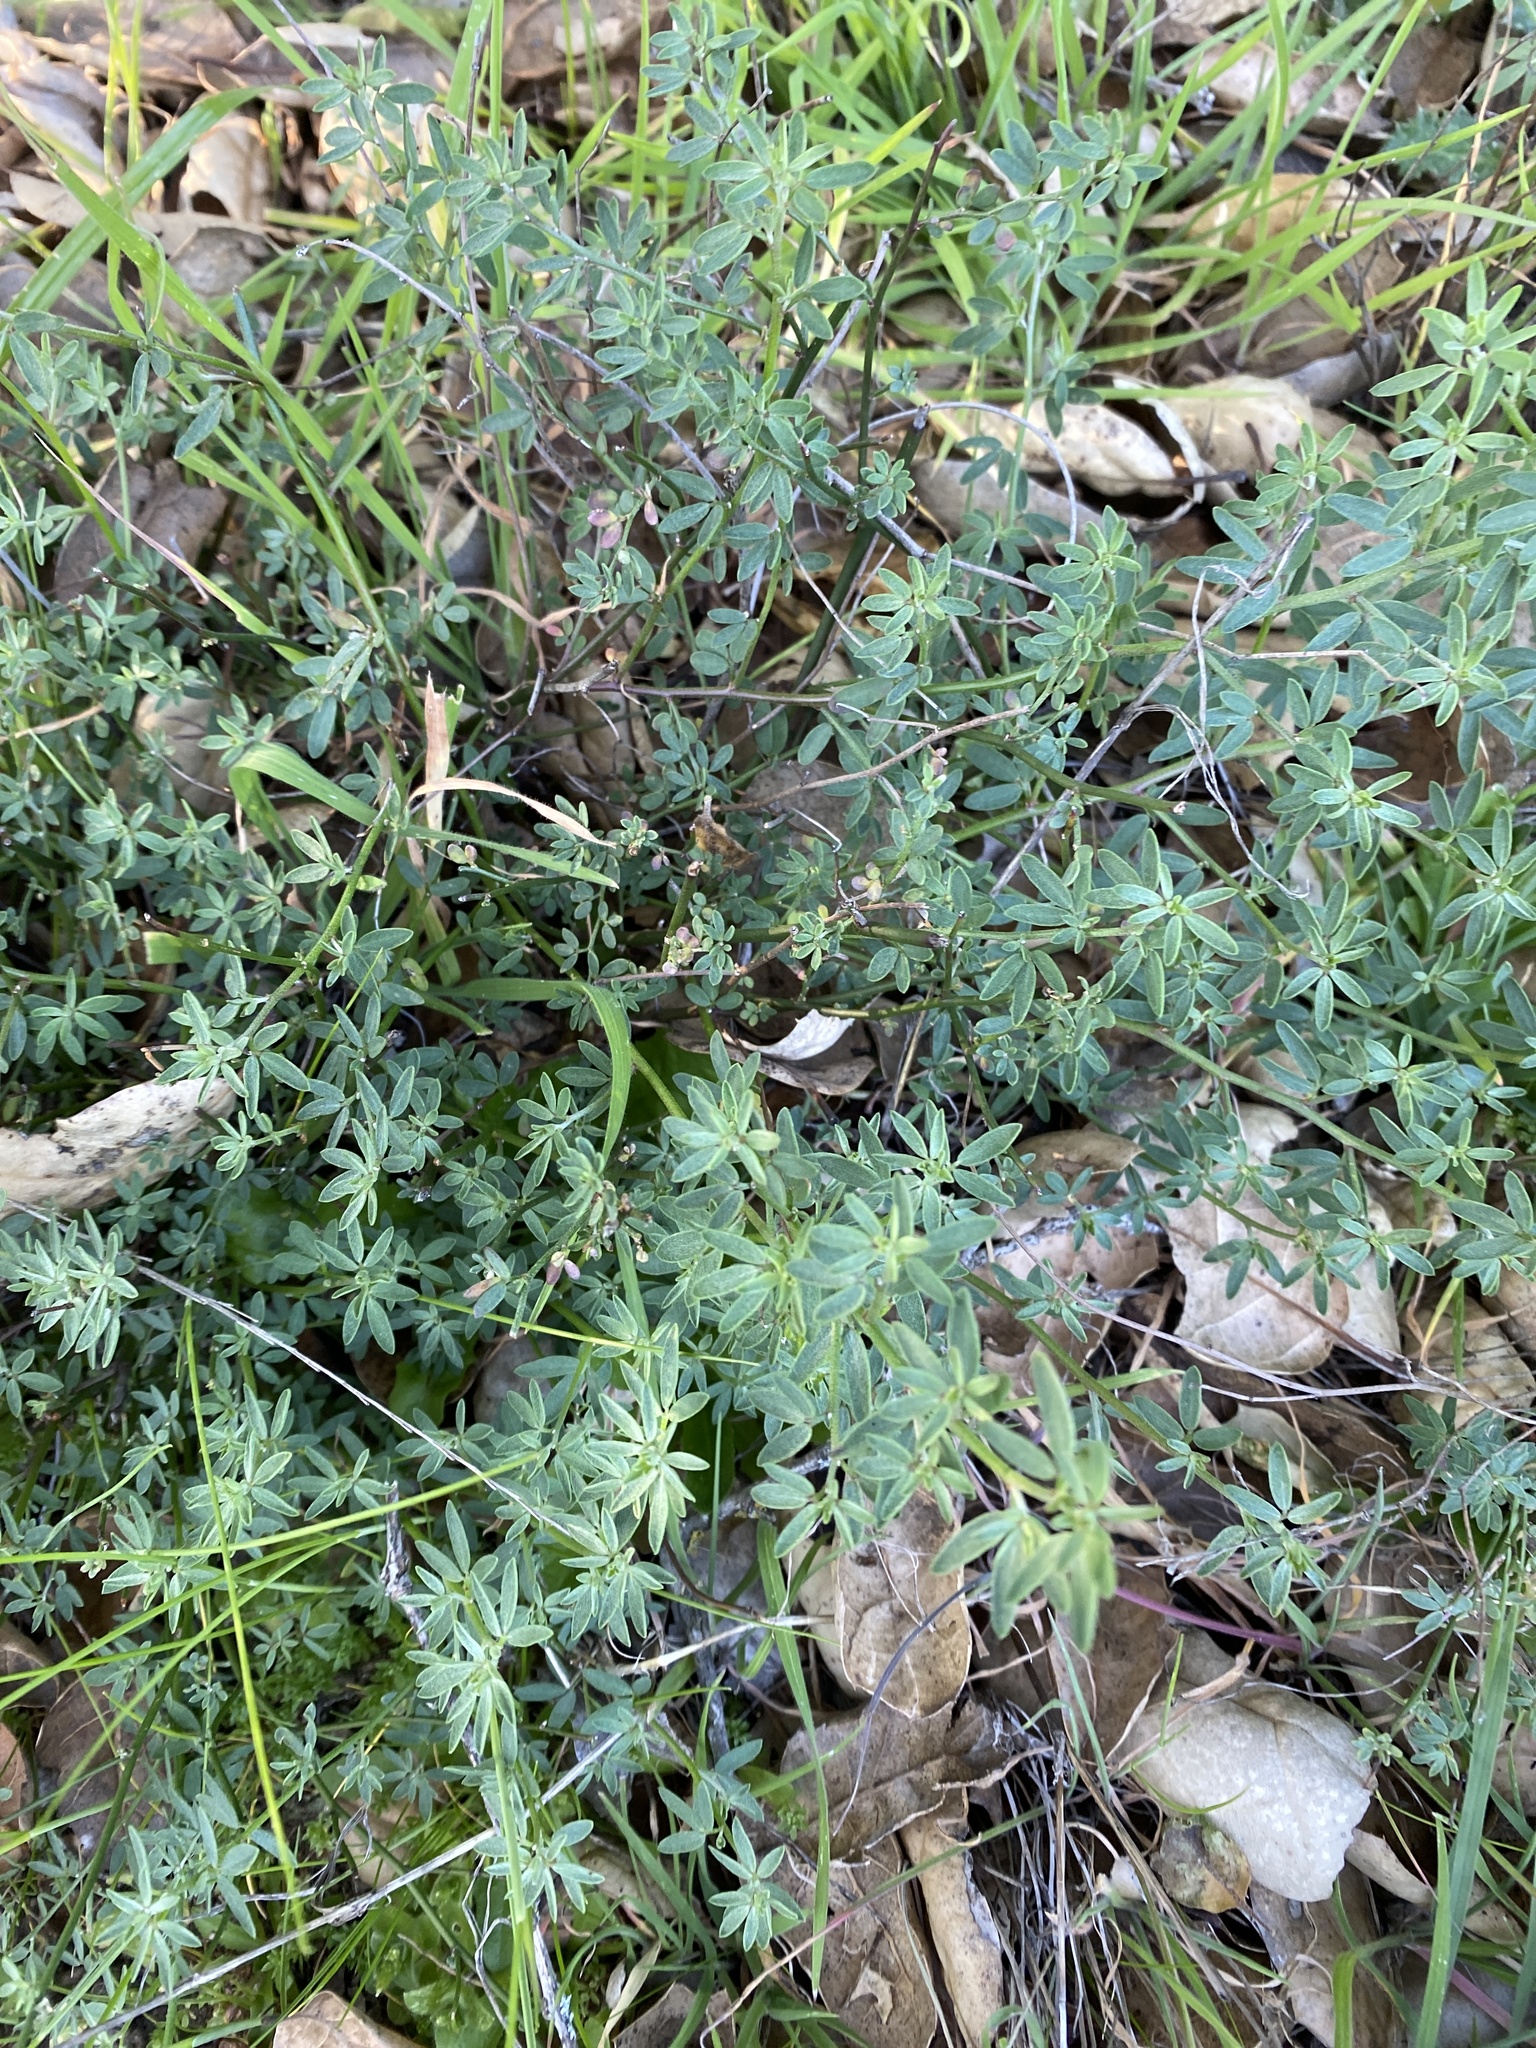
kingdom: Plantae
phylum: Tracheophyta
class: Magnoliopsida
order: Fabales
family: Fabaceae
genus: Acmispon
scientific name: Acmispon glaber
